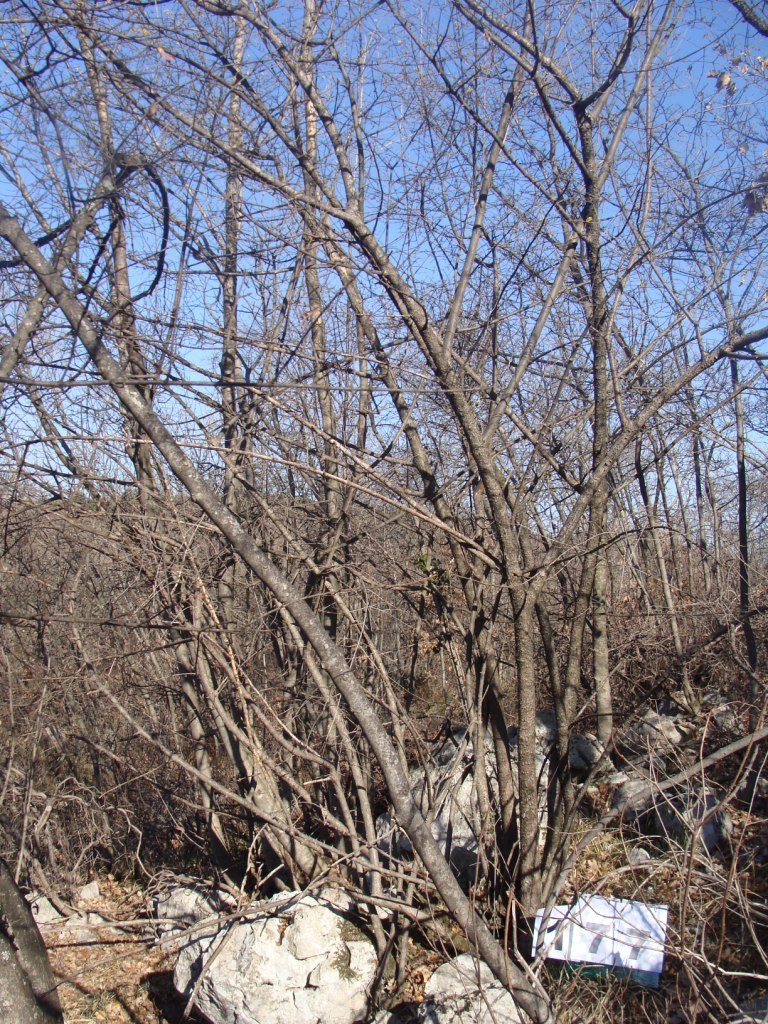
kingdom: Plantae
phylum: Tracheophyta
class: Magnoliopsida
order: Cornales
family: Cornaceae
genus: Cornus
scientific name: Cornus mas
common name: Cornelian-cherry
